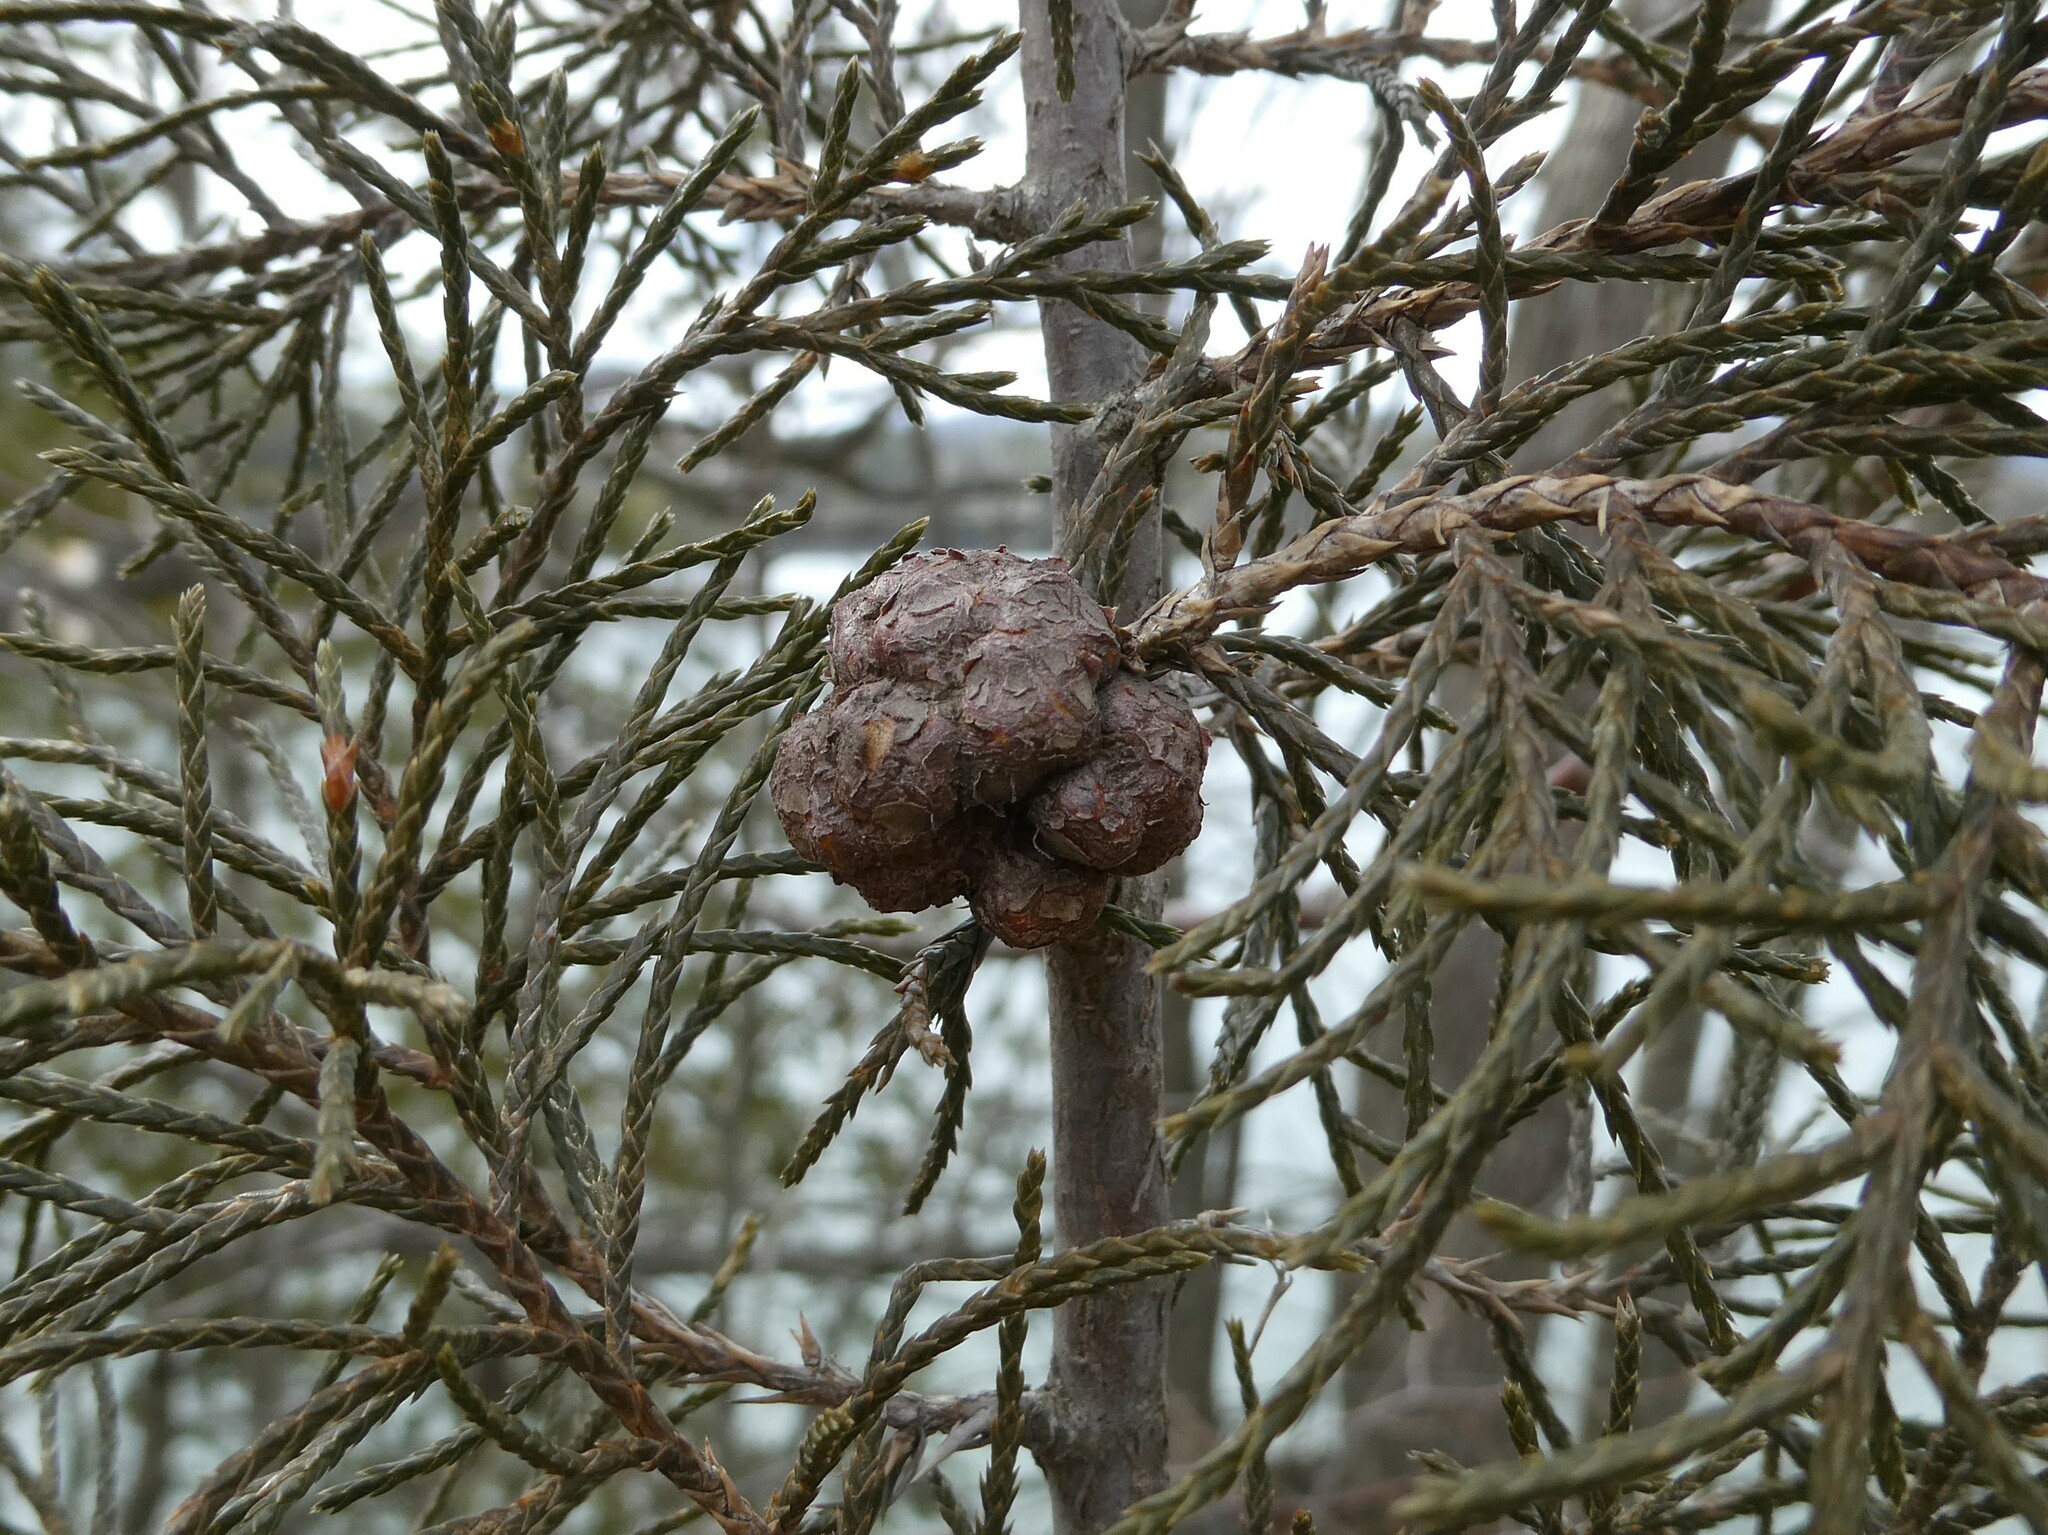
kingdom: Plantae
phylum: Tracheophyta
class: Pinopsida
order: Pinales
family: Cupressaceae
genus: Juniperus
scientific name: Juniperus virginiana
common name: Red juniper
